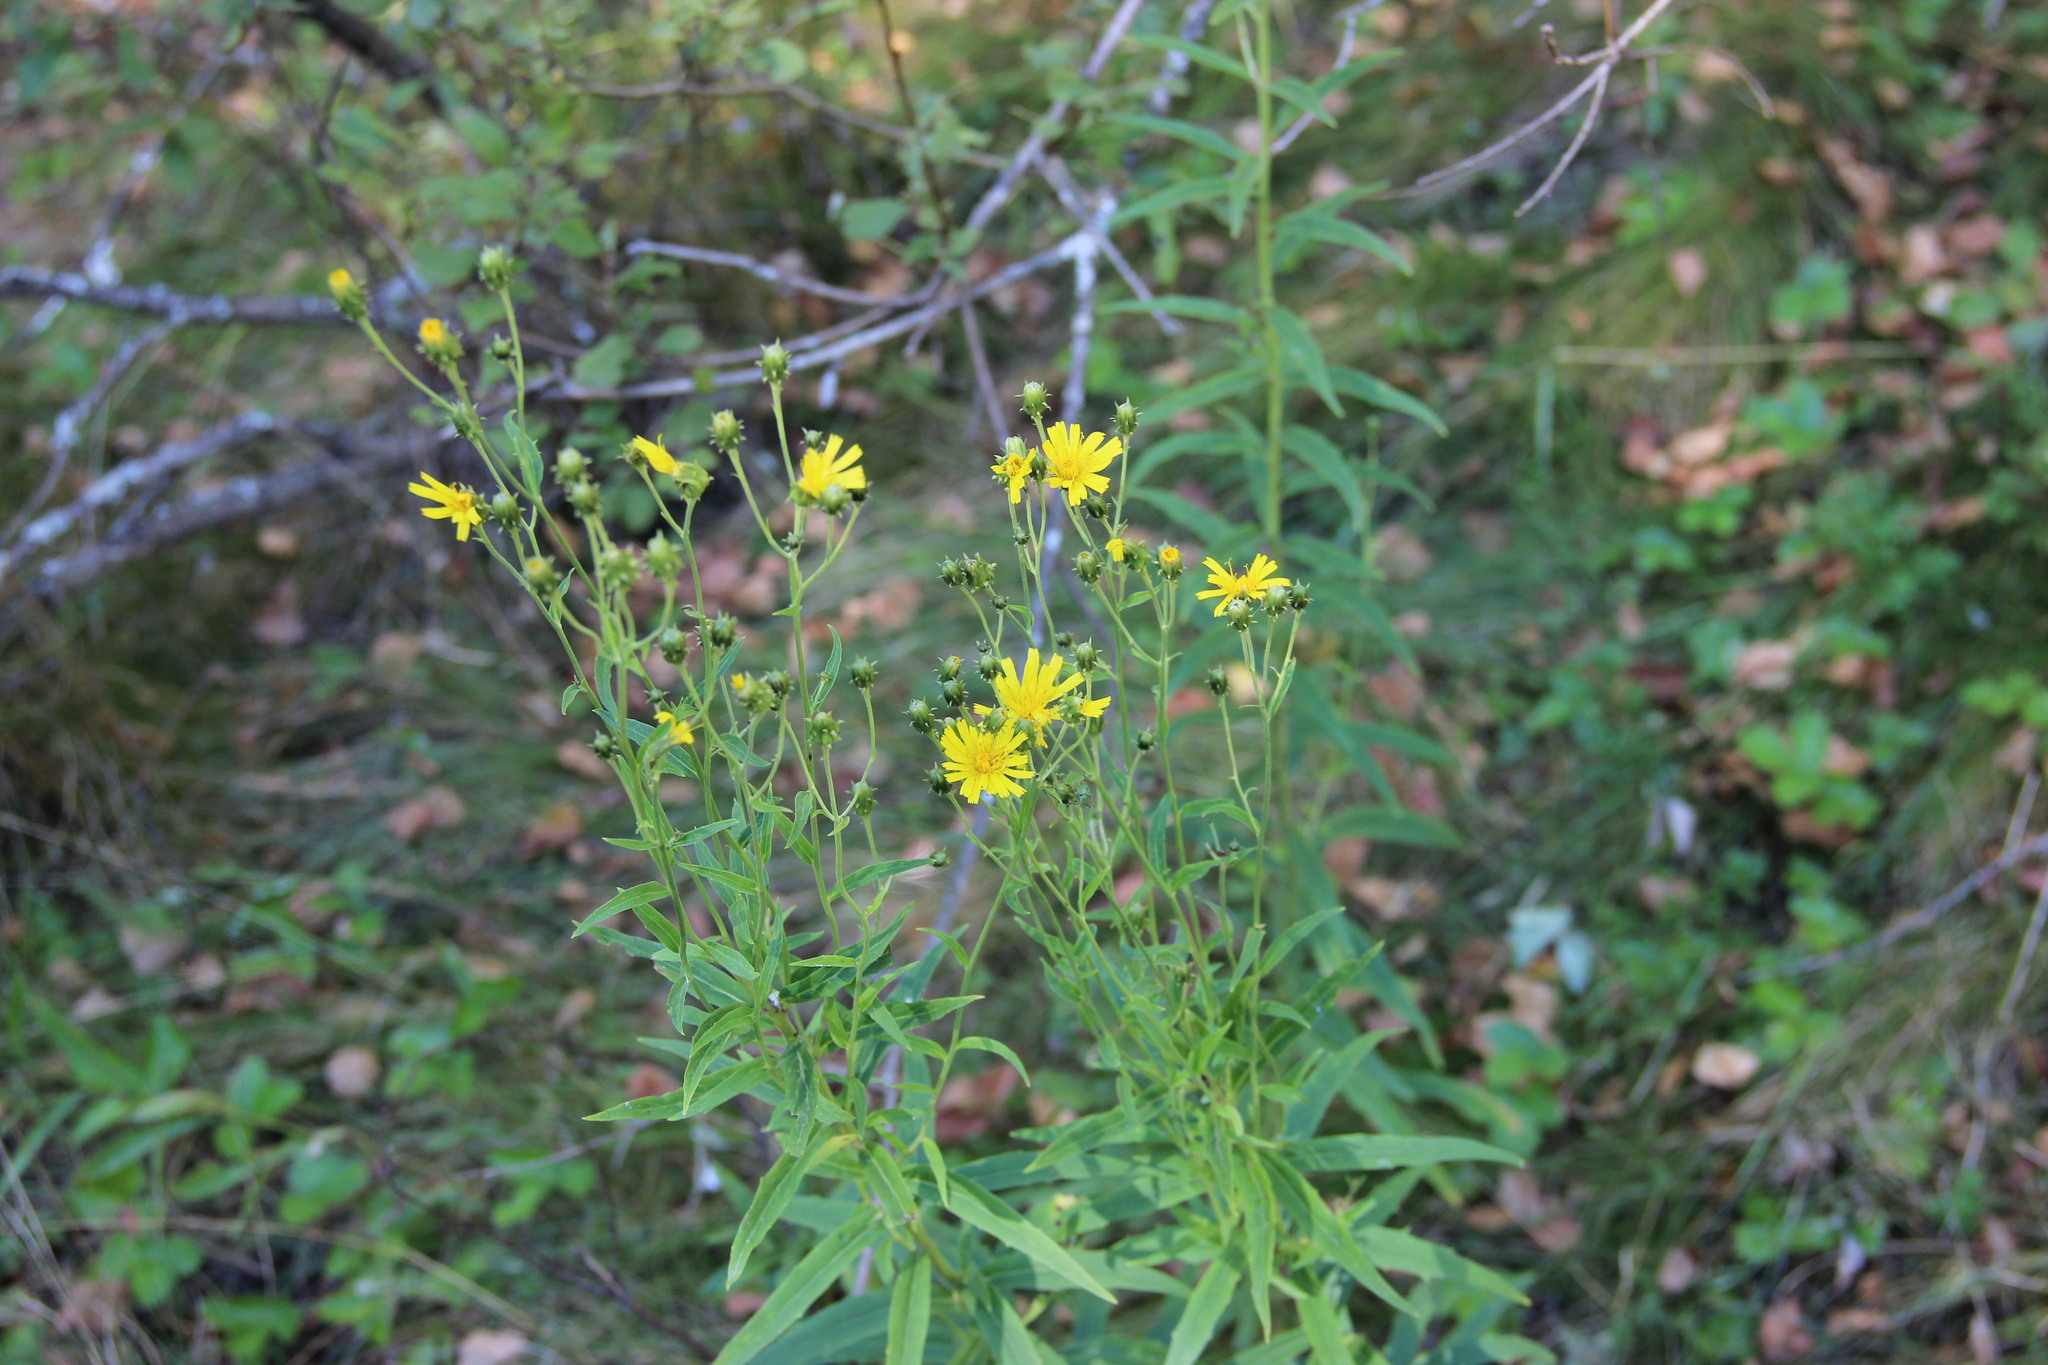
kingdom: Plantae
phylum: Tracheophyta
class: Magnoliopsida
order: Asterales
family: Asteraceae
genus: Hieracium
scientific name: Hieracium umbellatum
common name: Northern hawkweed
